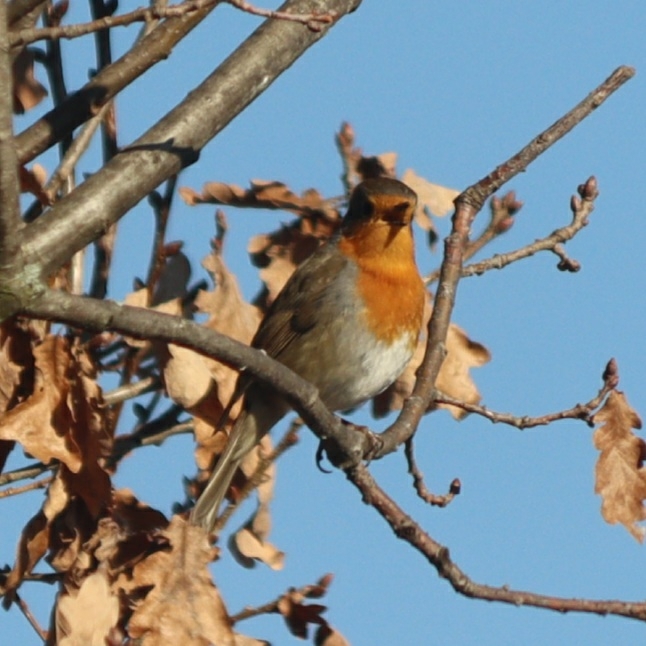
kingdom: Animalia
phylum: Chordata
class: Aves
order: Passeriformes
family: Muscicapidae
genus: Erithacus
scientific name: Erithacus rubecula
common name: European robin
